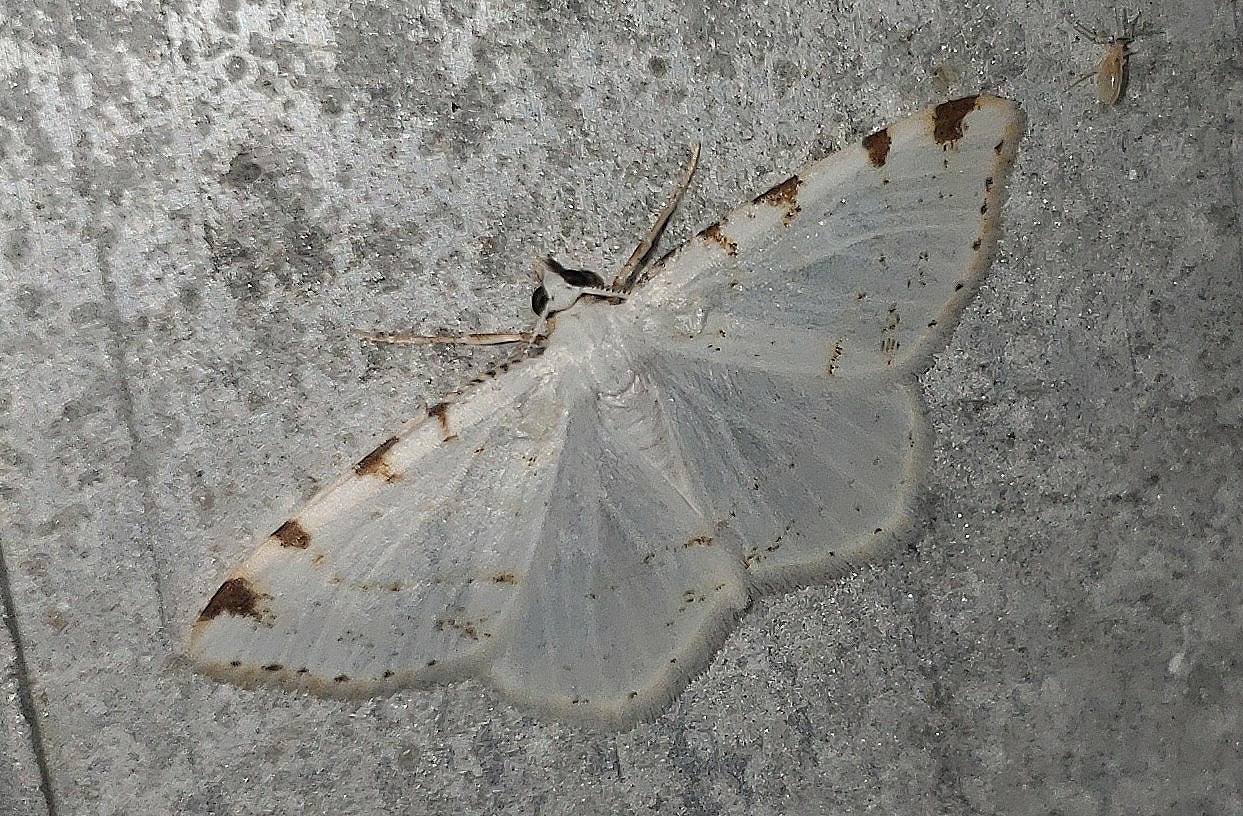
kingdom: Animalia
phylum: Arthropoda
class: Insecta
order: Lepidoptera
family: Geometridae
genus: Macaria
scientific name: Macaria pustularia
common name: Lesser maple spanworm moth
